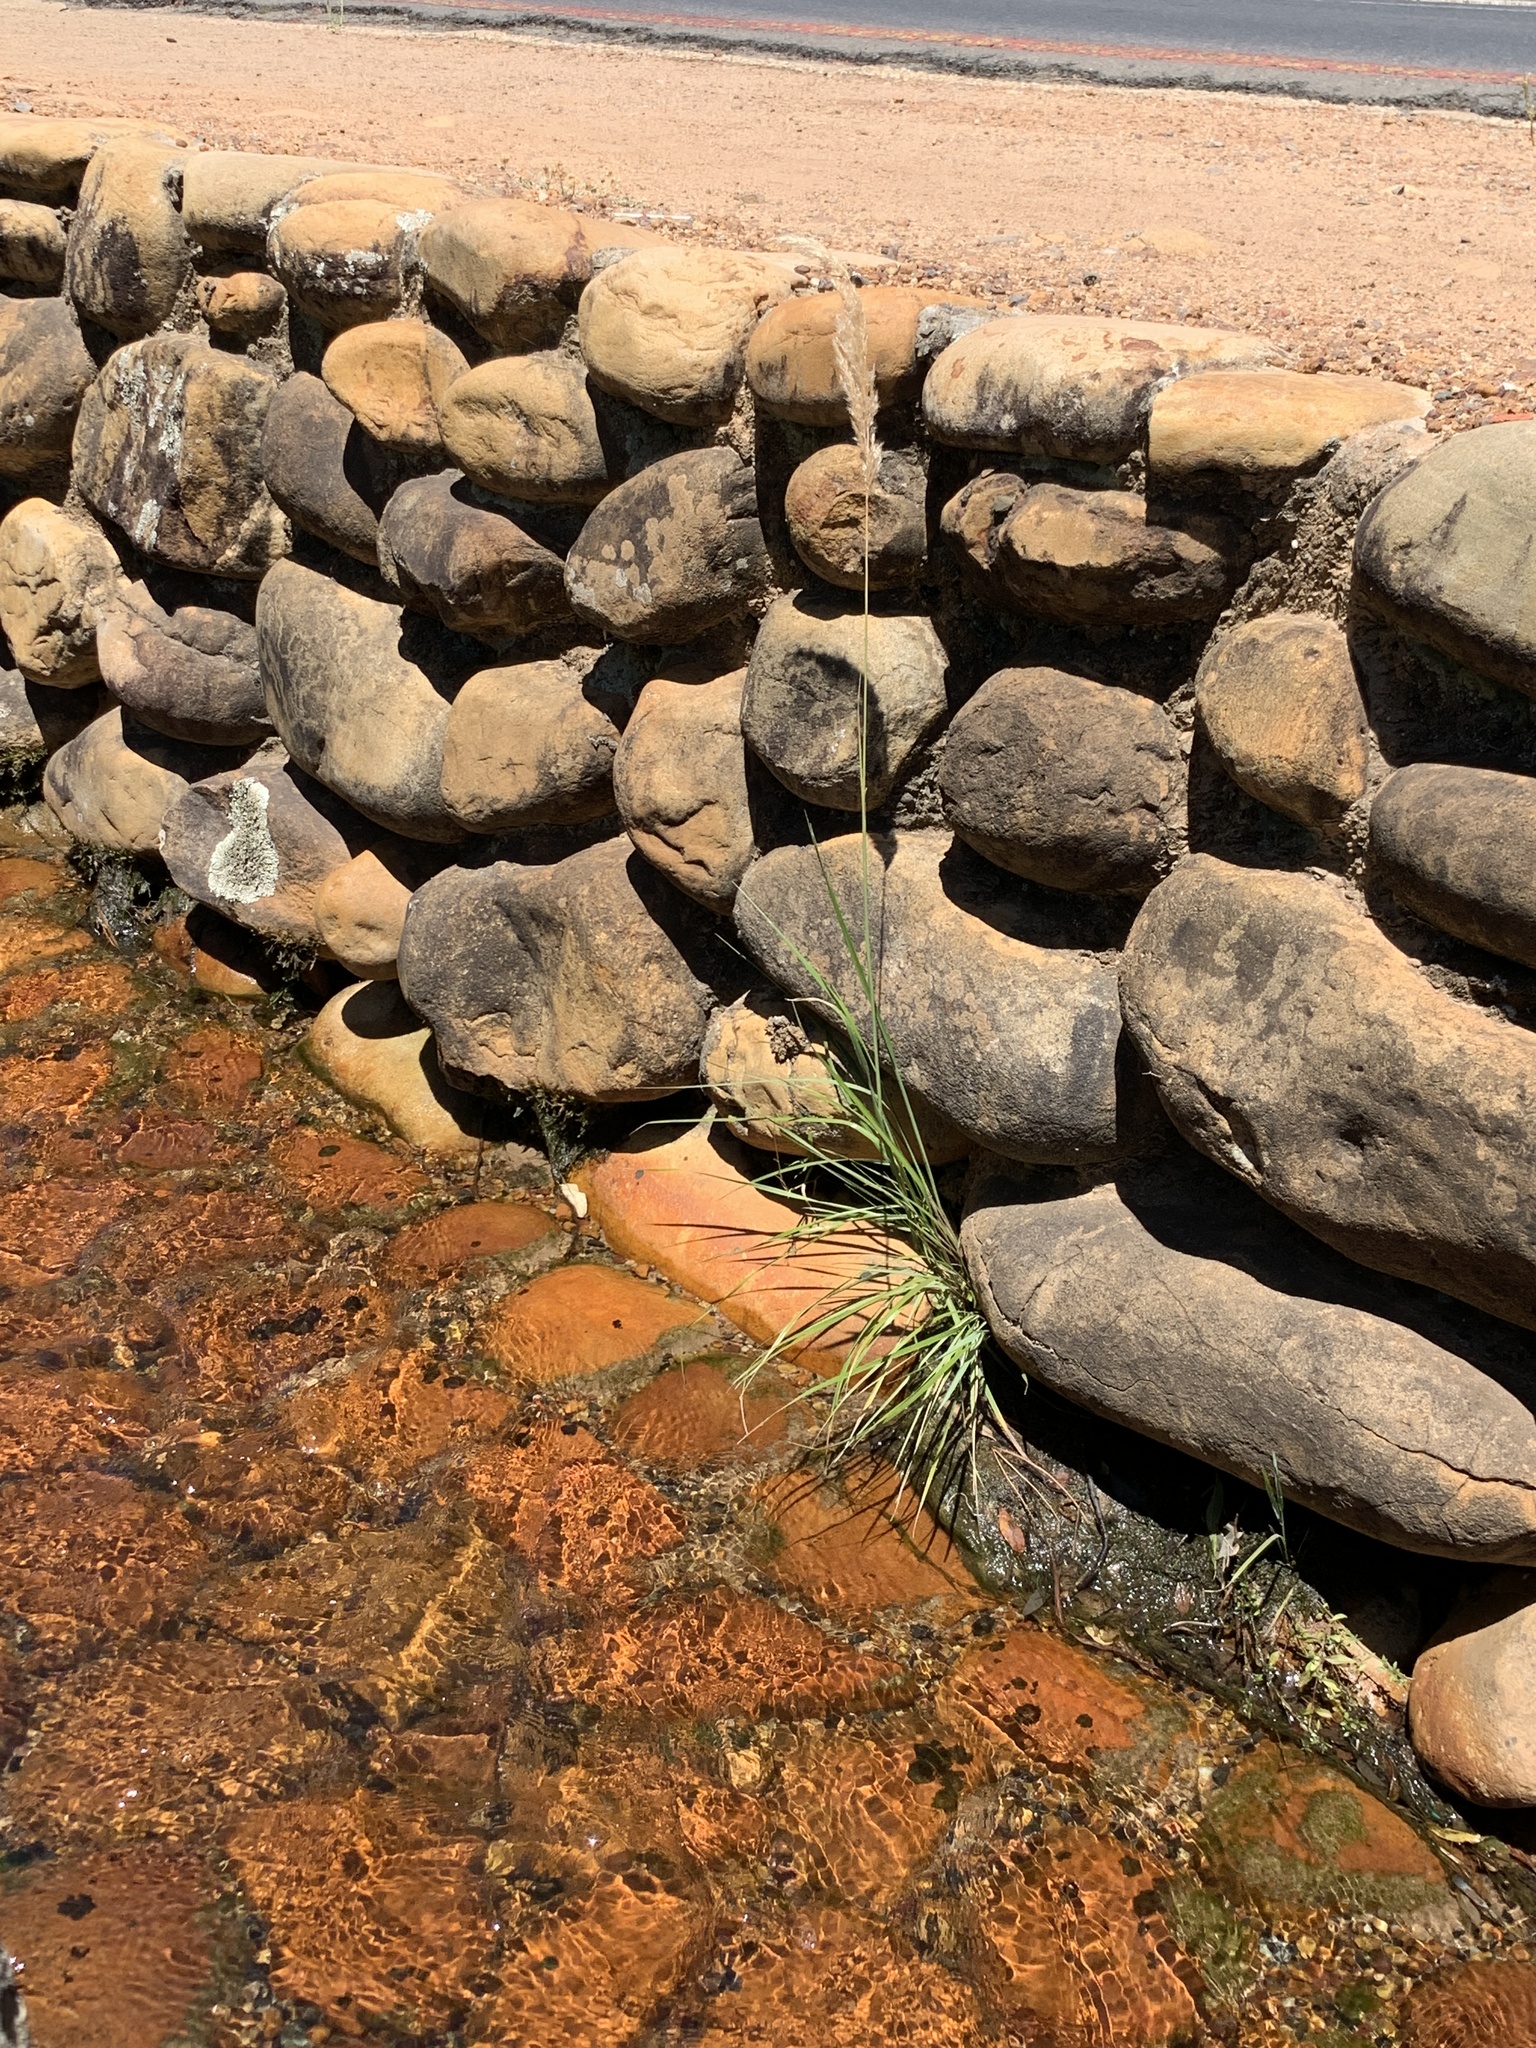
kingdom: Plantae
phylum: Tracheophyta
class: Liliopsida
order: Poales
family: Poaceae
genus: Polypogon
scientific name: Polypogon monspeliensis
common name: Annual rabbitsfoot grass
